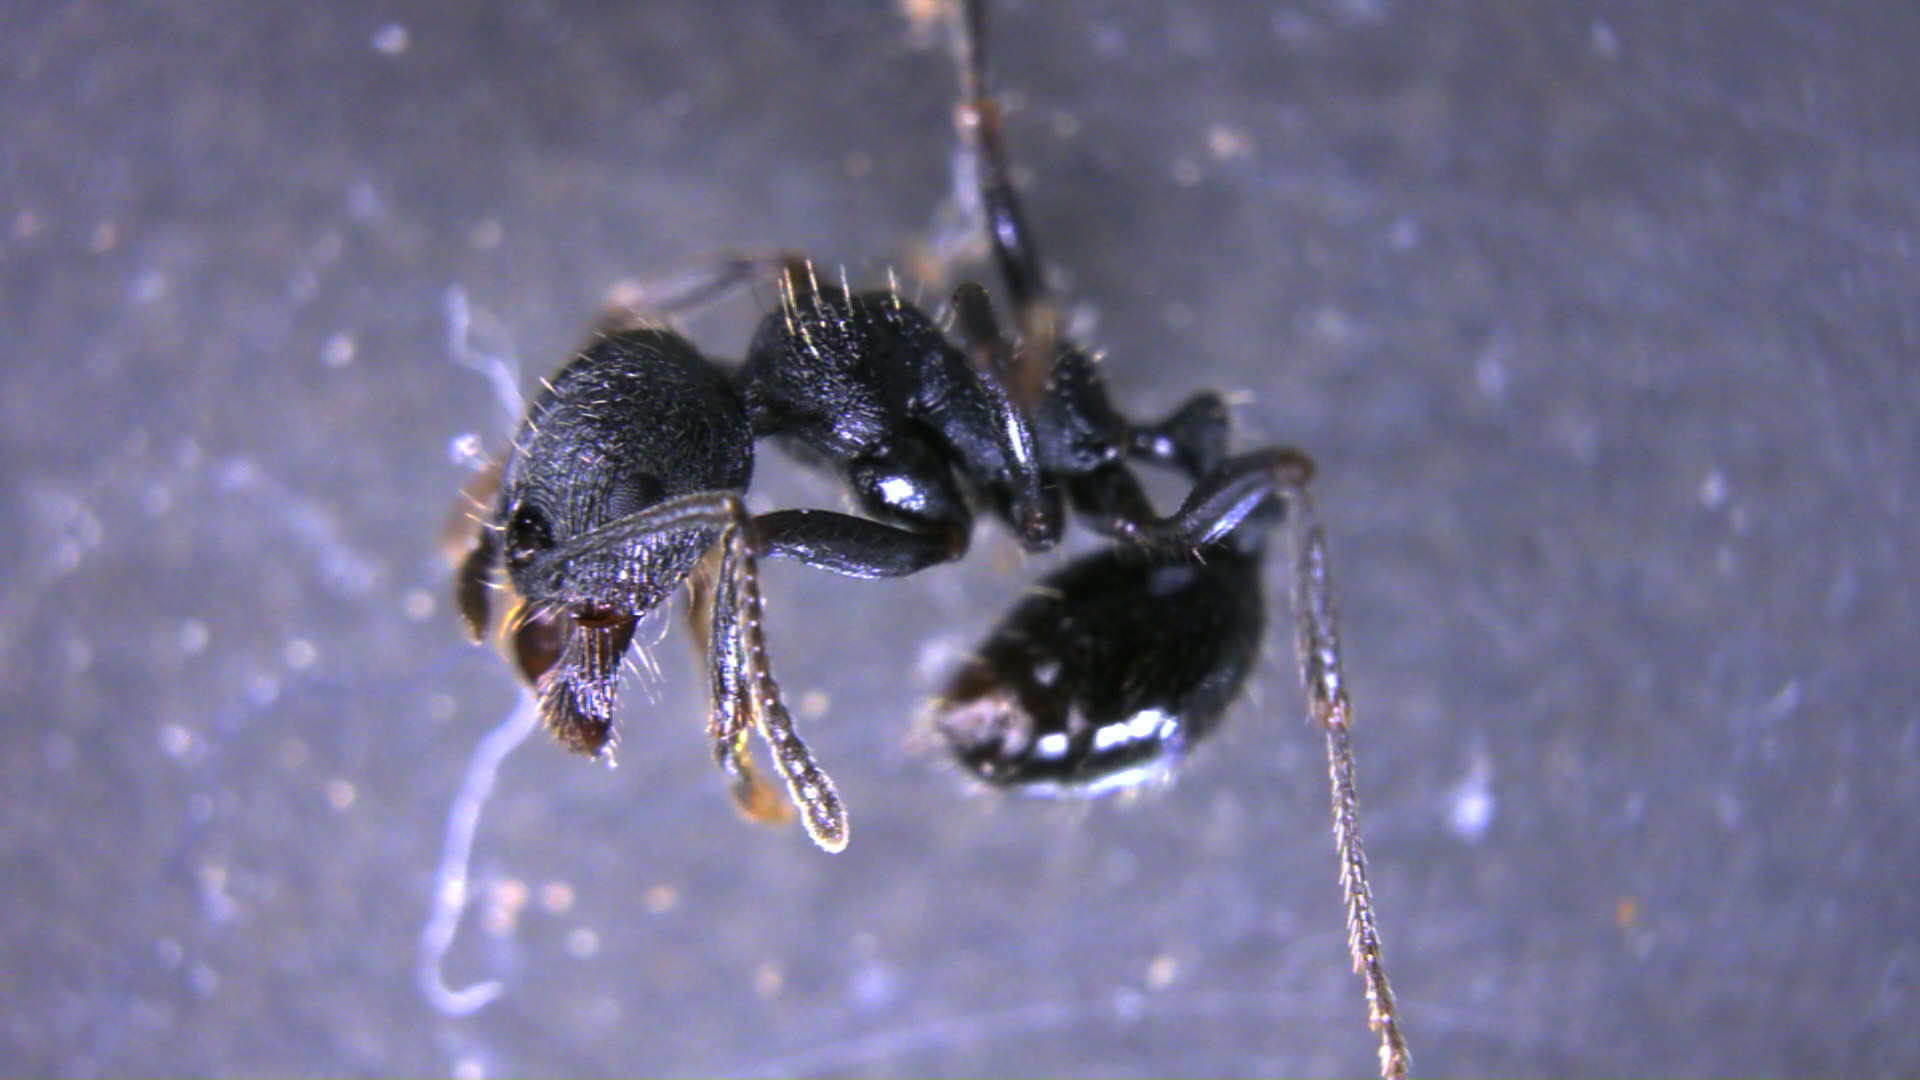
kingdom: Animalia
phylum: Arthropoda
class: Insecta
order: Hymenoptera
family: Formicidae
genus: Messor
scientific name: Messor aciculatus
